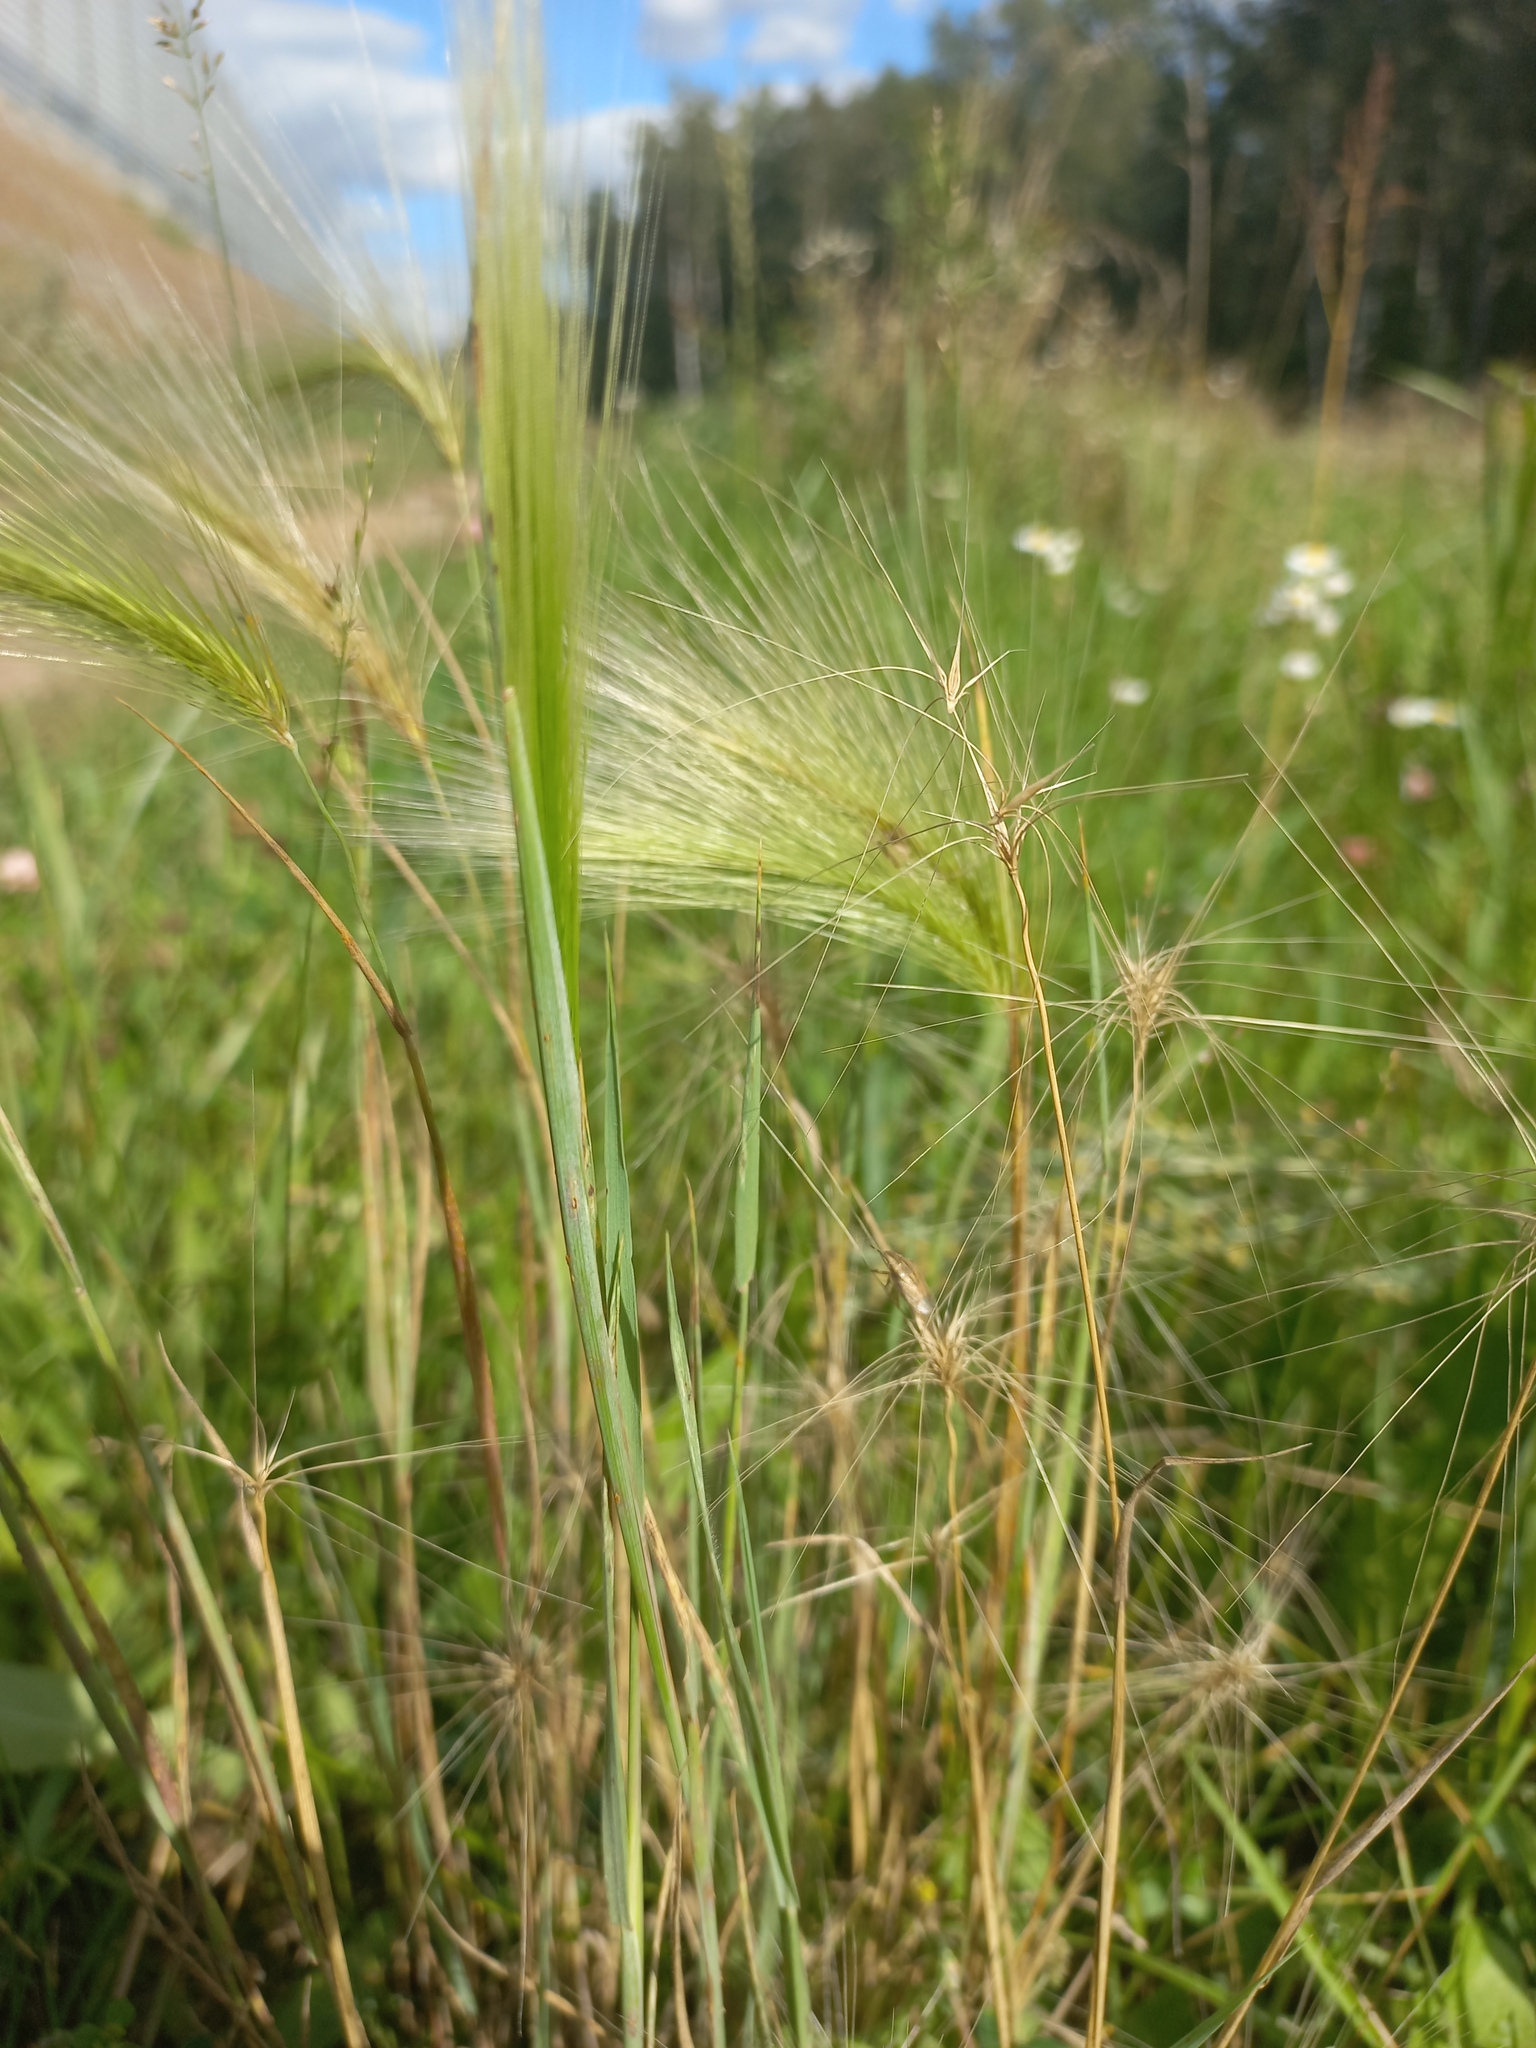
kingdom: Plantae
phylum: Tracheophyta
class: Liliopsida
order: Poales
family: Poaceae
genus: Hordeum
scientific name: Hordeum jubatum
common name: Foxtail barley
